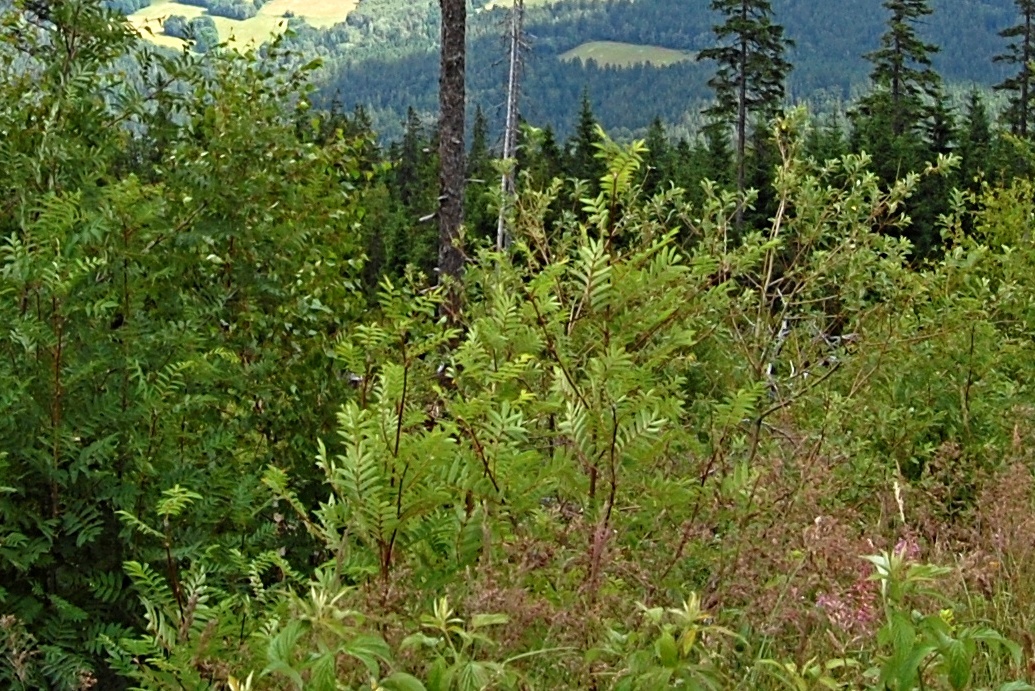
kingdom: Plantae
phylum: Tracheophyta
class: Magnoliopsida
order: Rosales
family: Rosaceae
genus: Sorbus
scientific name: Sorbus aucuparia
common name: Rowan
